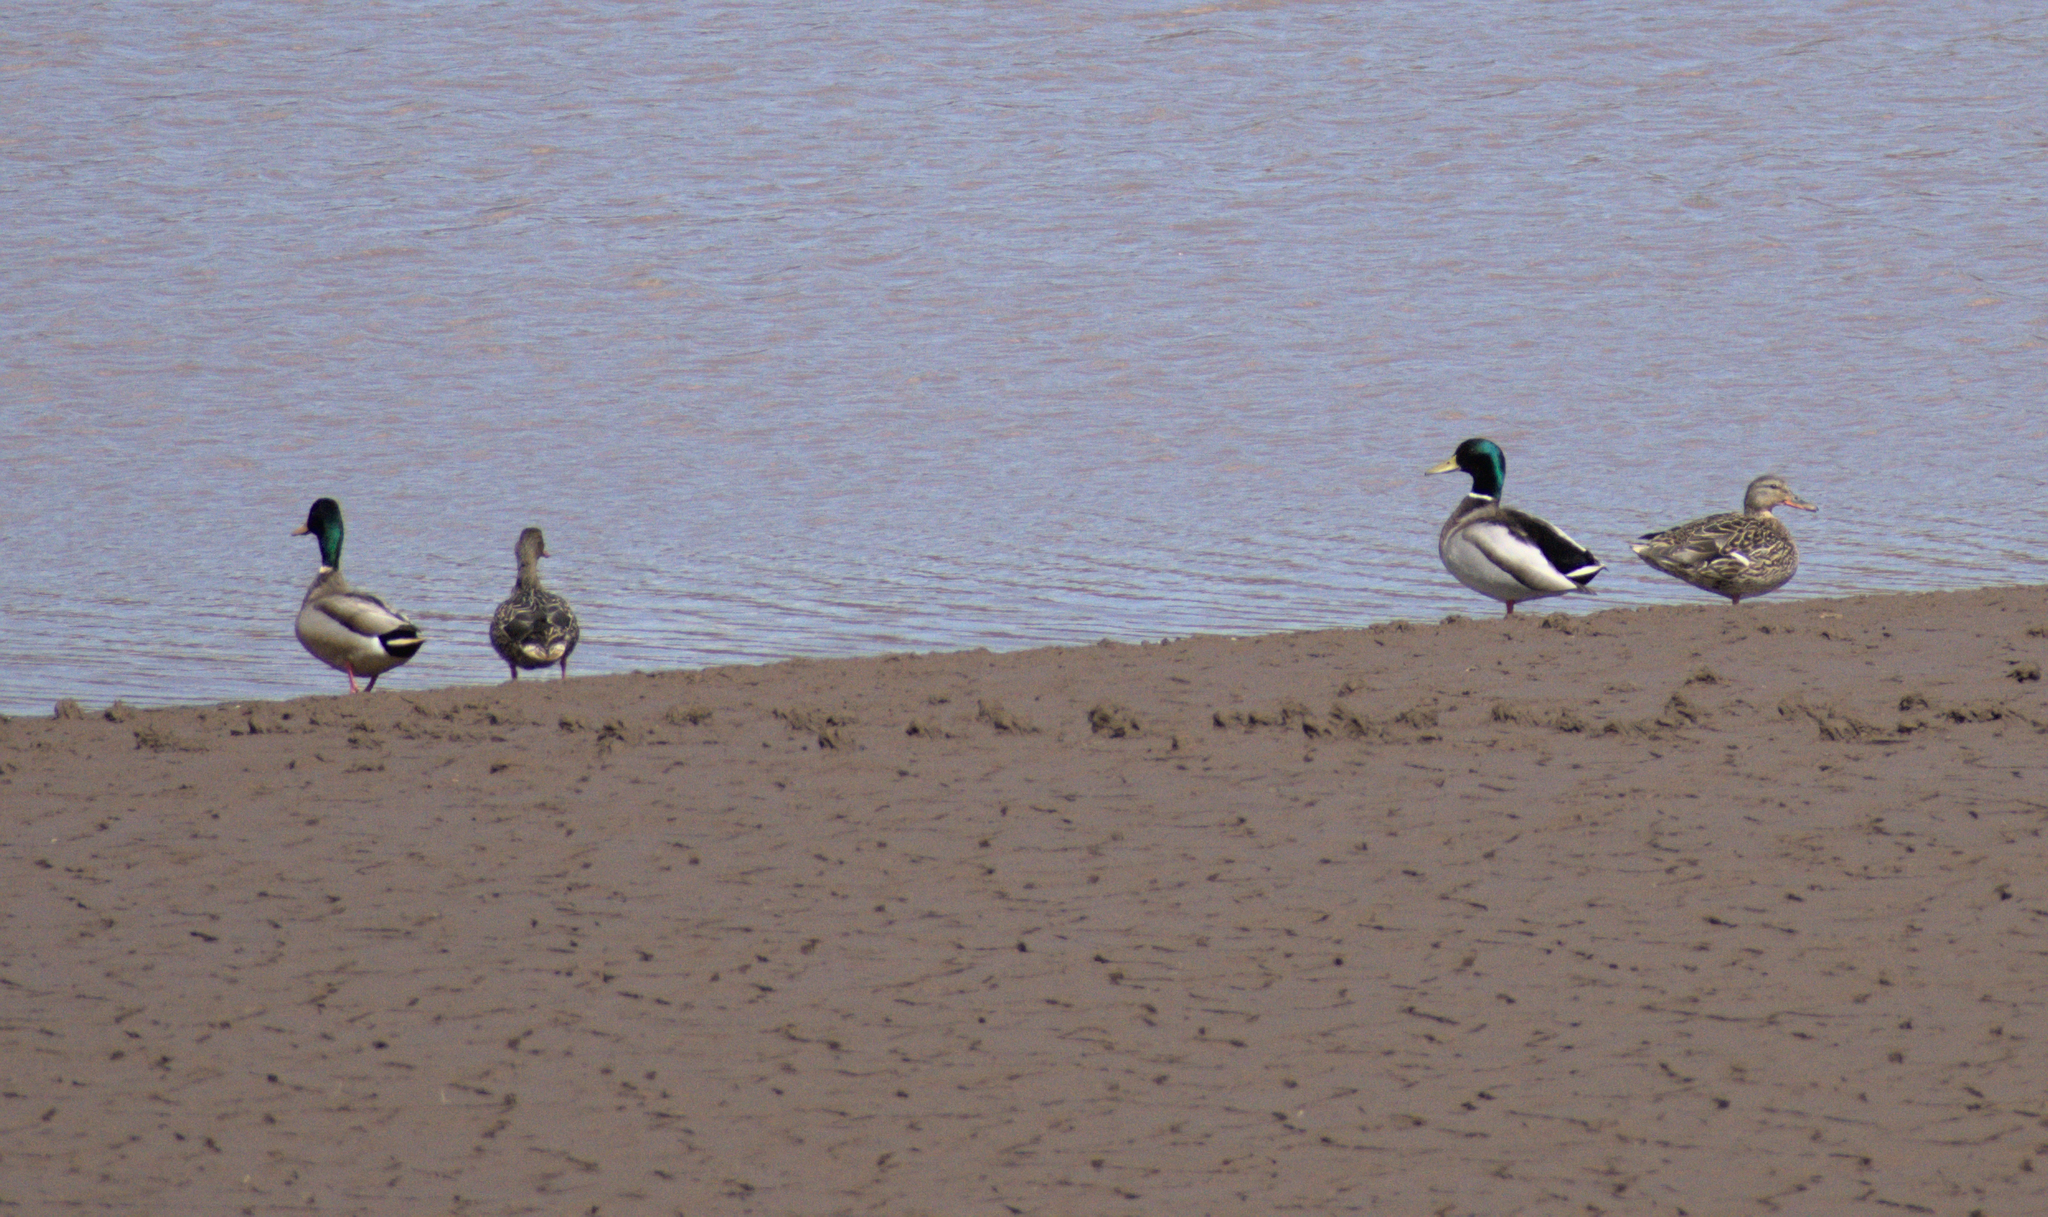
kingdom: Animalia
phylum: Chordata
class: Aves
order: Anseriformes
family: Anatidae
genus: Anas
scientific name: Anas platyrhynchos
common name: Mallard
